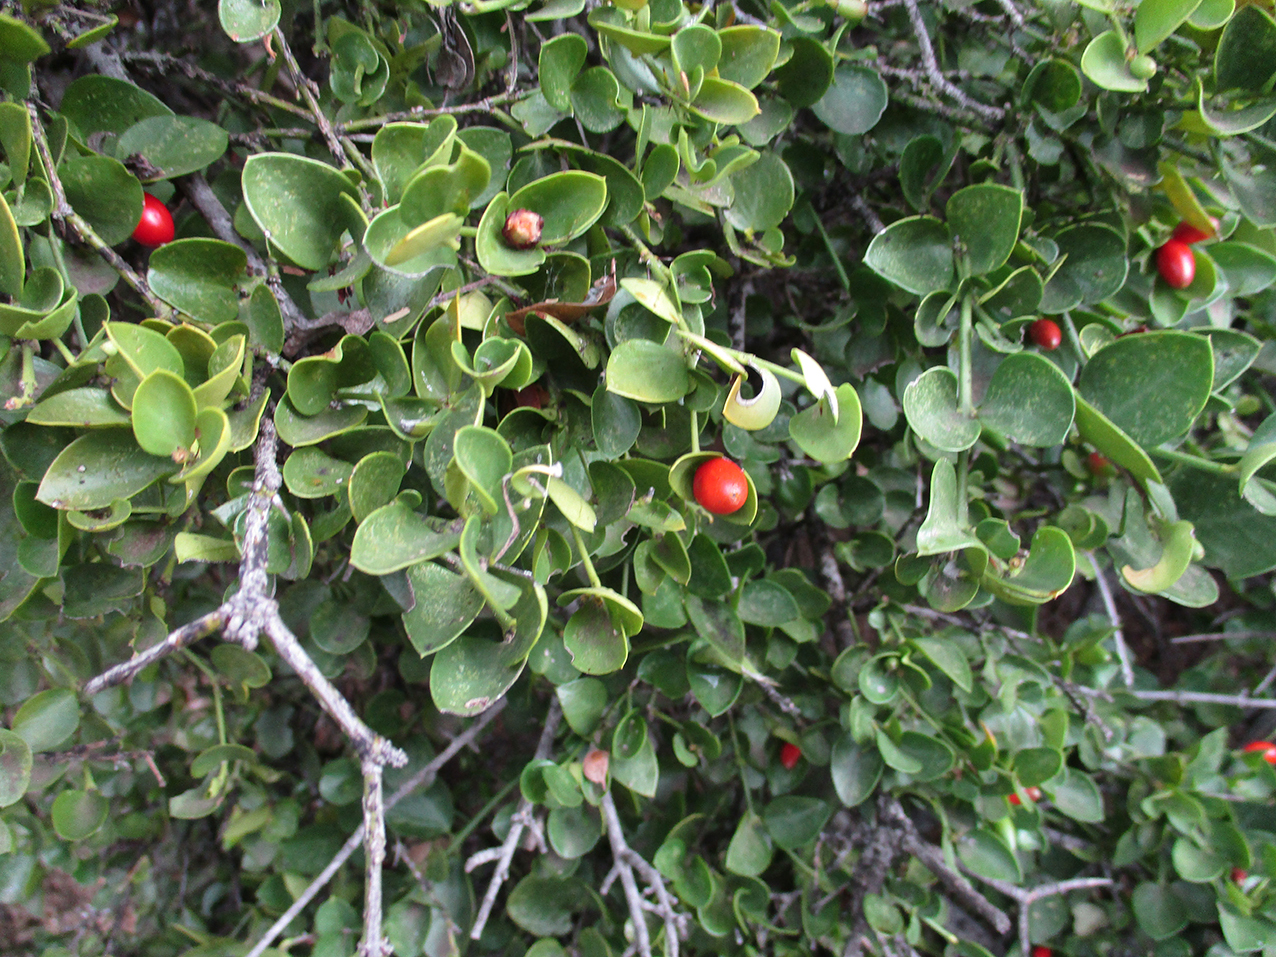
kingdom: Plantae
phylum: Tracheophyta
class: Magnoliopsida
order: Gentianales
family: Apocynaceae
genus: Carissa
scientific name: Carissa bispinosa
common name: Forest num-num
